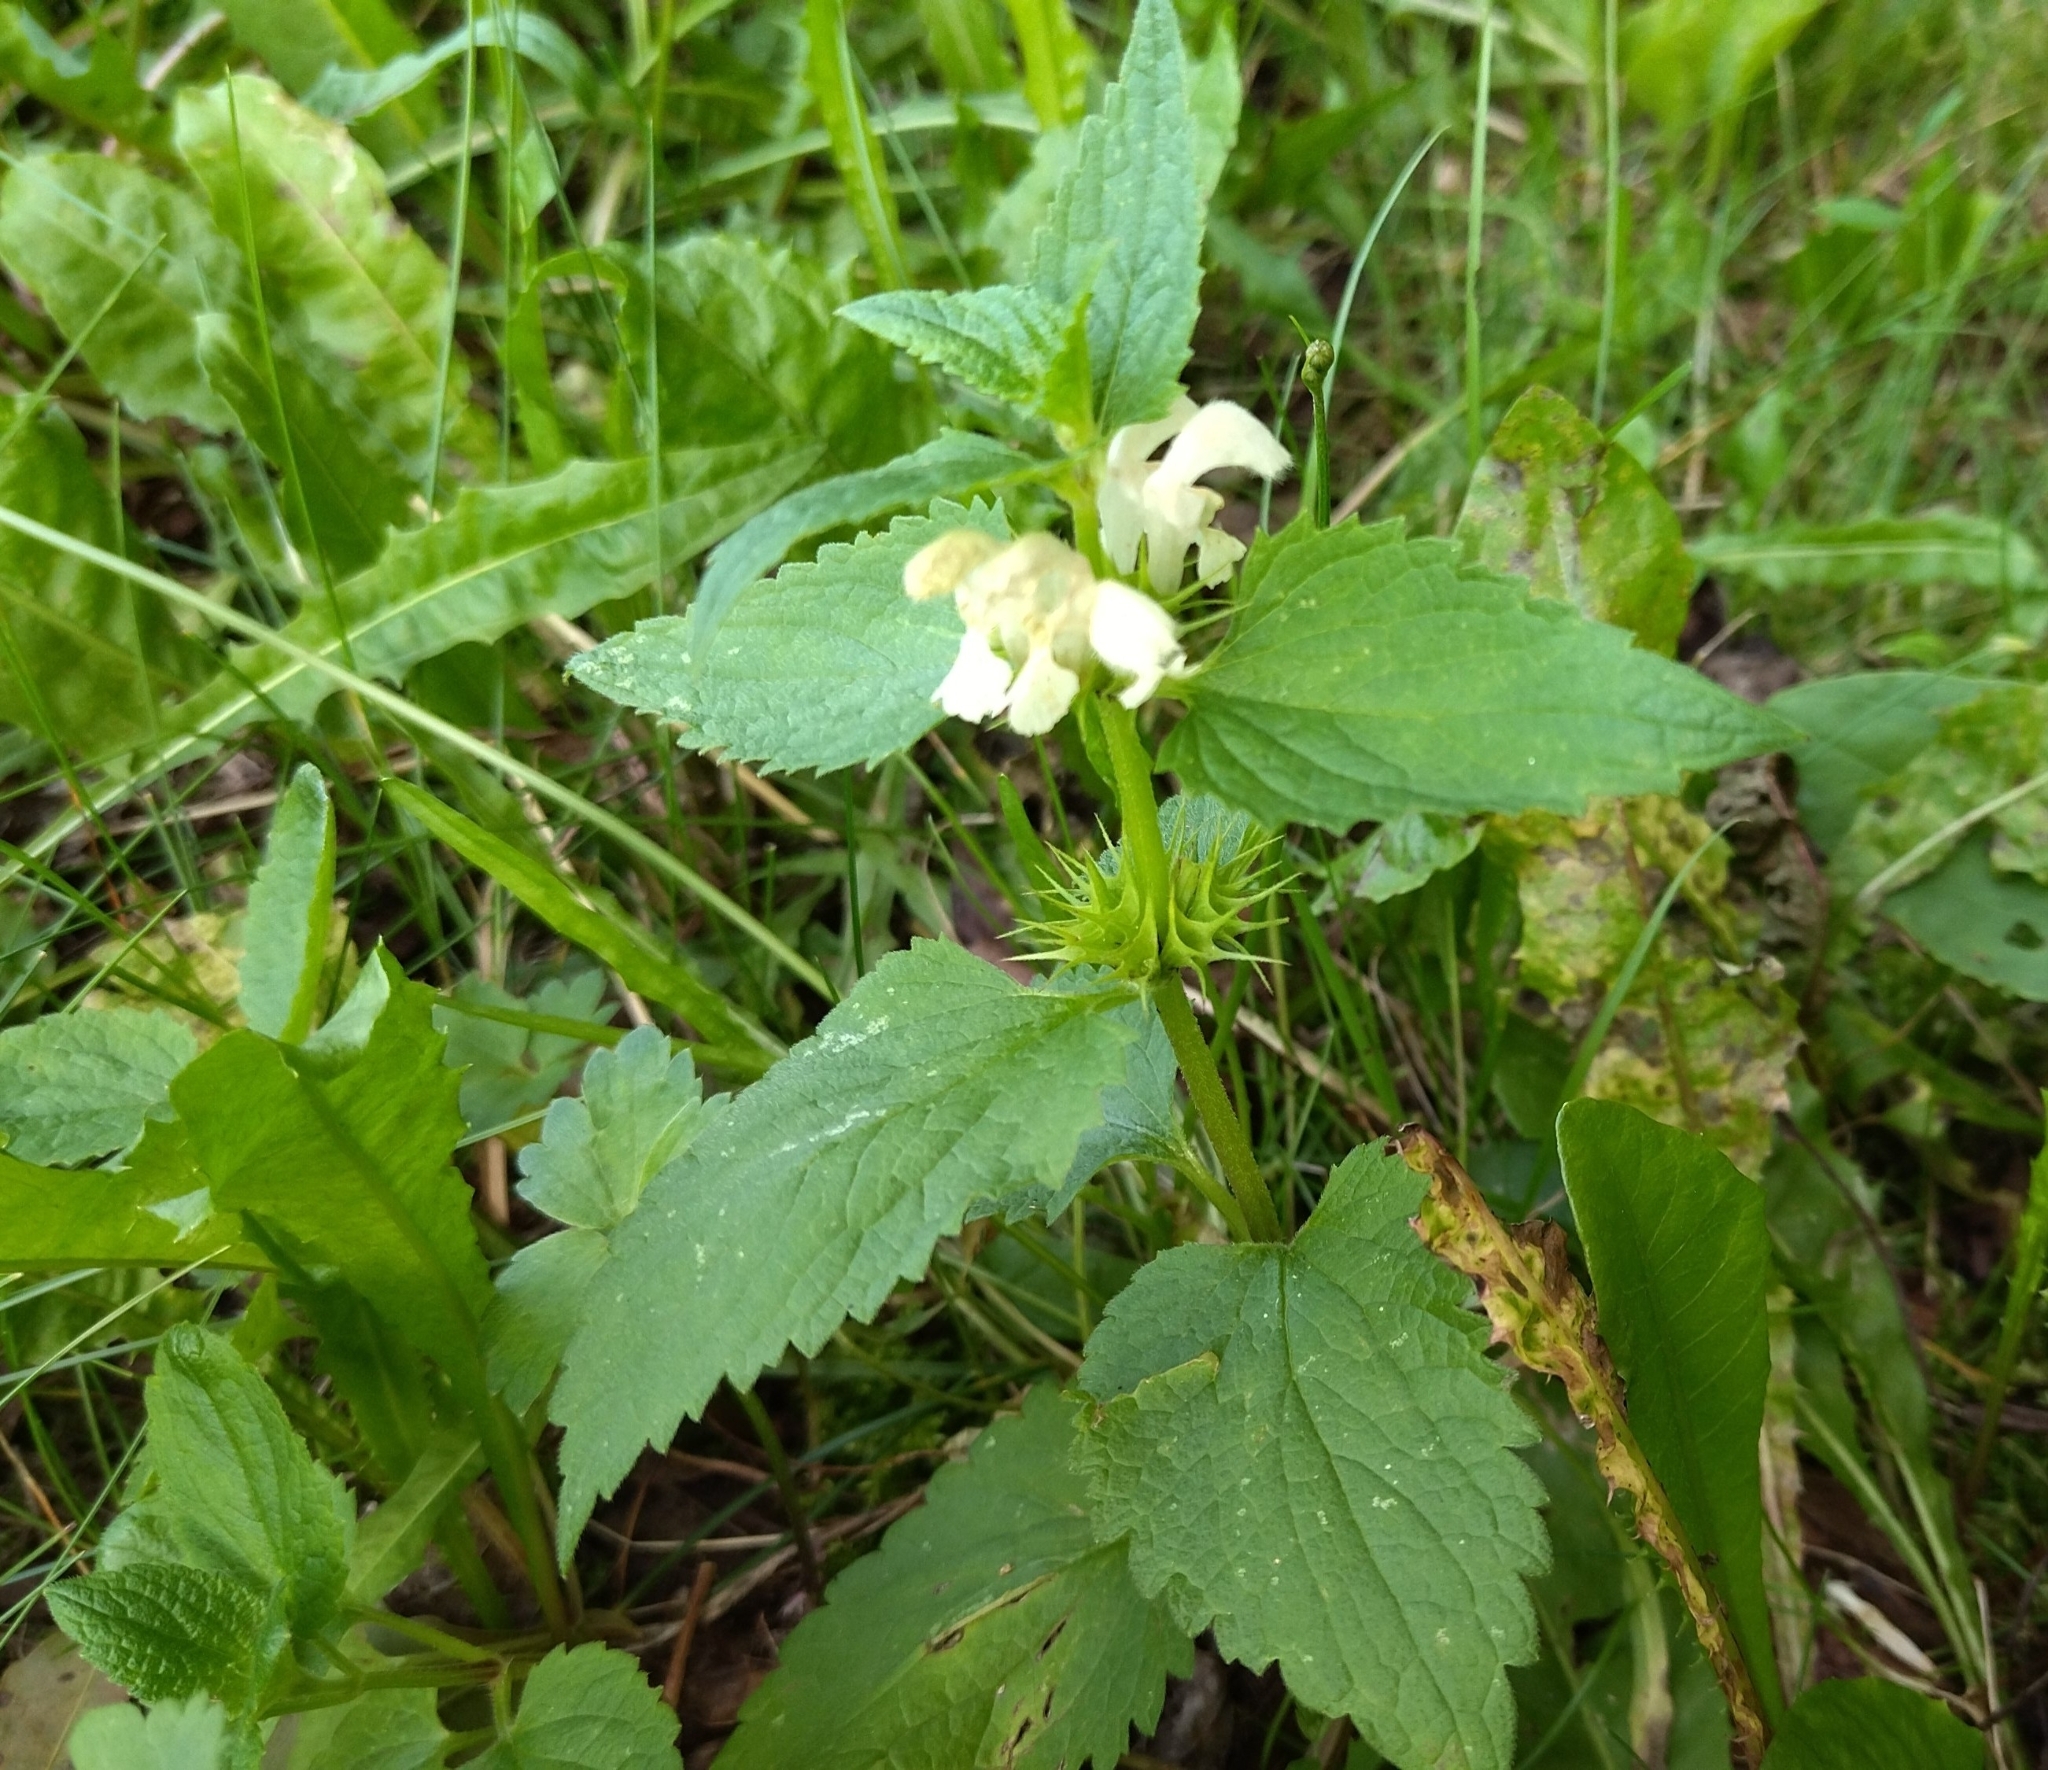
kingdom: Plantae
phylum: Tracheophyta
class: Magnoliopsida
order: Lamiales
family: Lamiaceae
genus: Lamium
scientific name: Lamium album
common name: White dead-nettle
